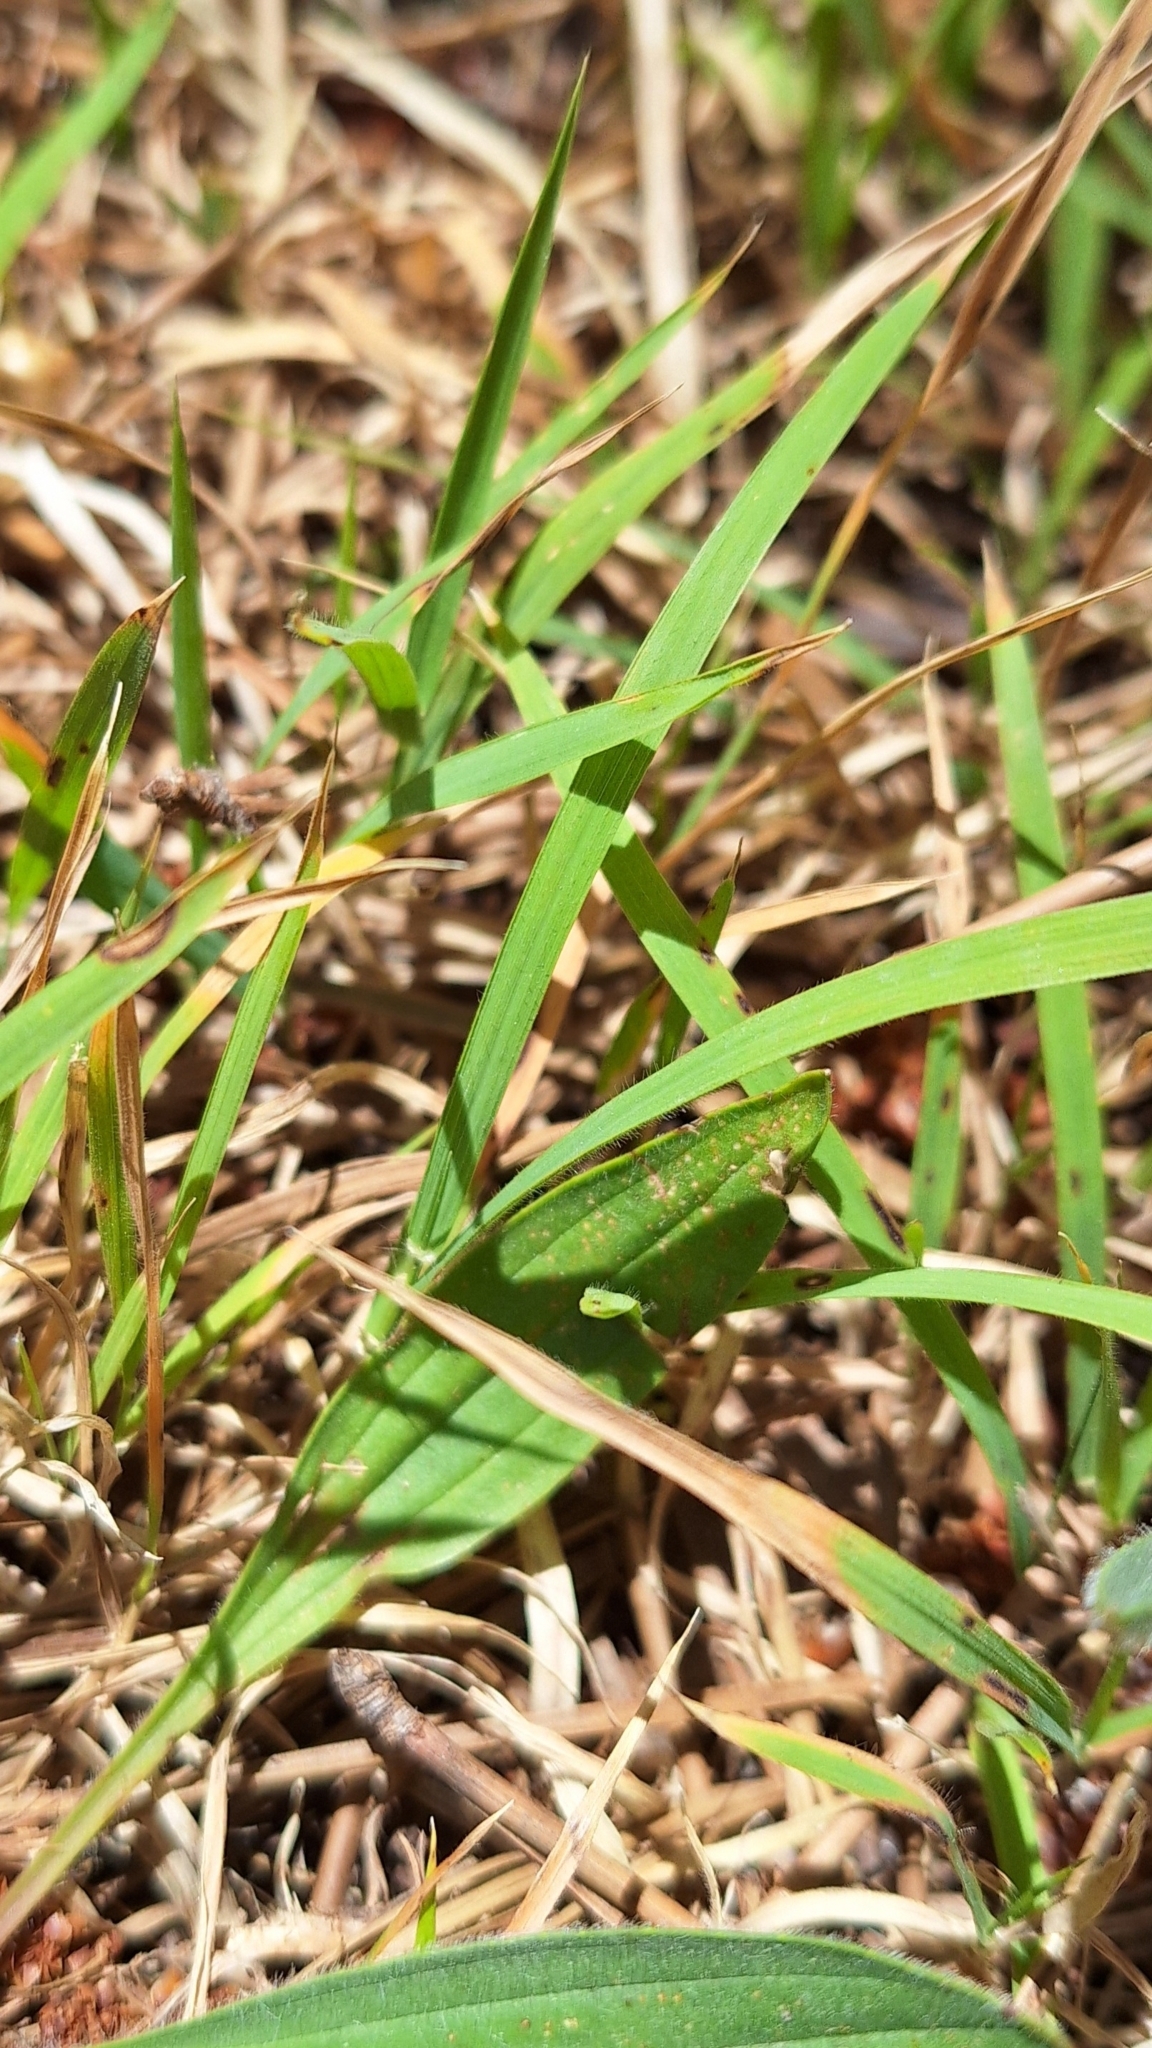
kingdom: Plantae
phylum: Tracheophyta
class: Liliopsida
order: Poales
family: Poaceae
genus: Microlaena
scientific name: Microlaena stipoides
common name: Meadow ricegrass
